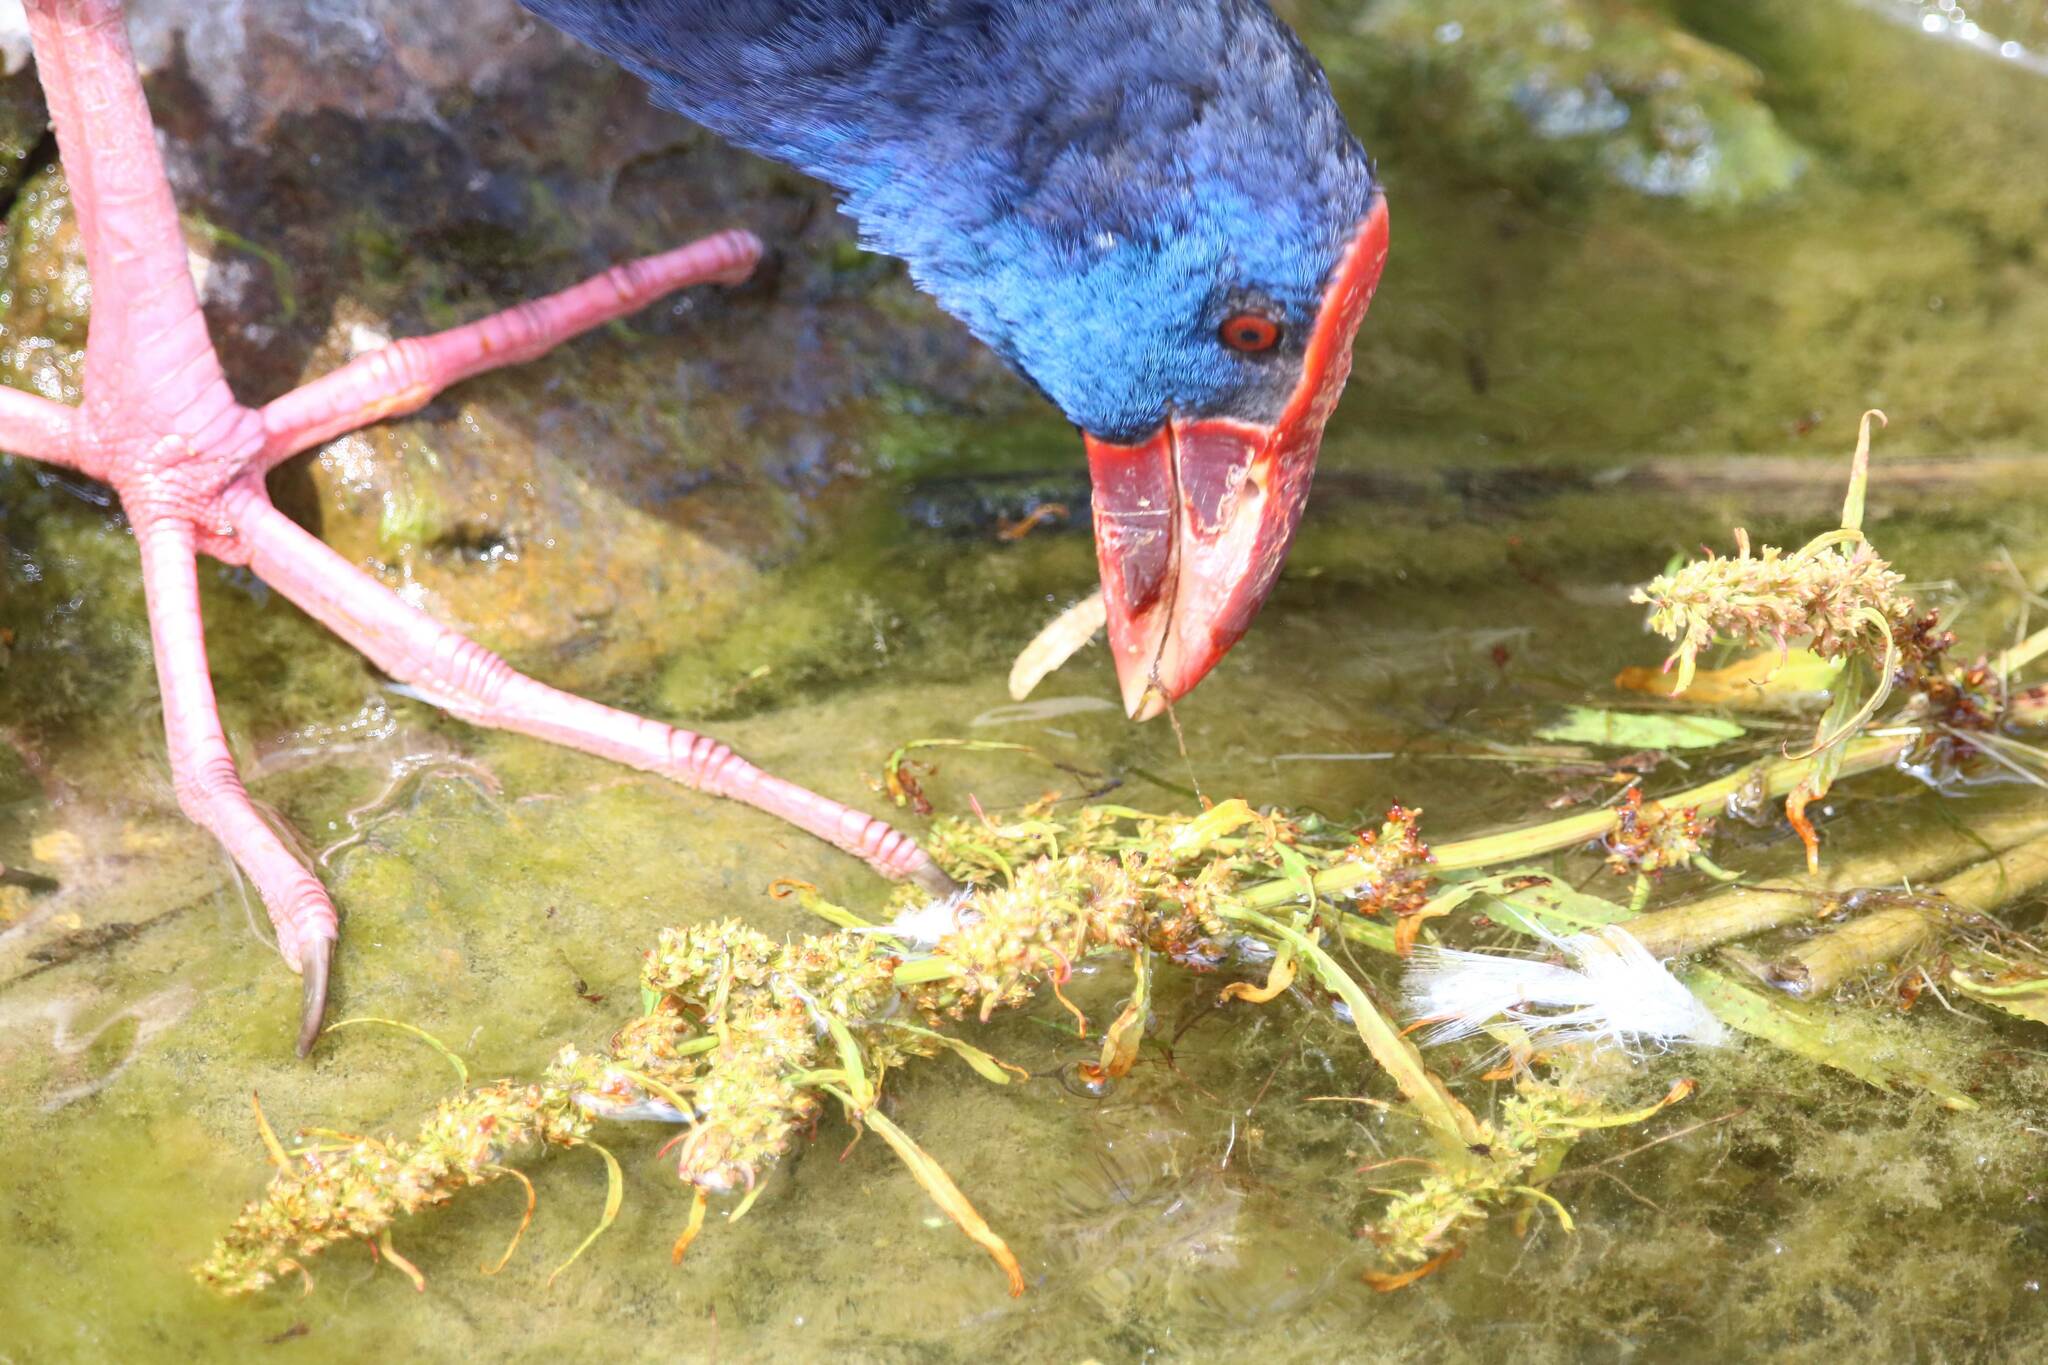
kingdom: Animalia
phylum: Chordata
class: Aves
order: Gruiformes
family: Rallidae
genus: Porphyrio
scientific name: Porphyrio porphyrio
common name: Purple swamphen
